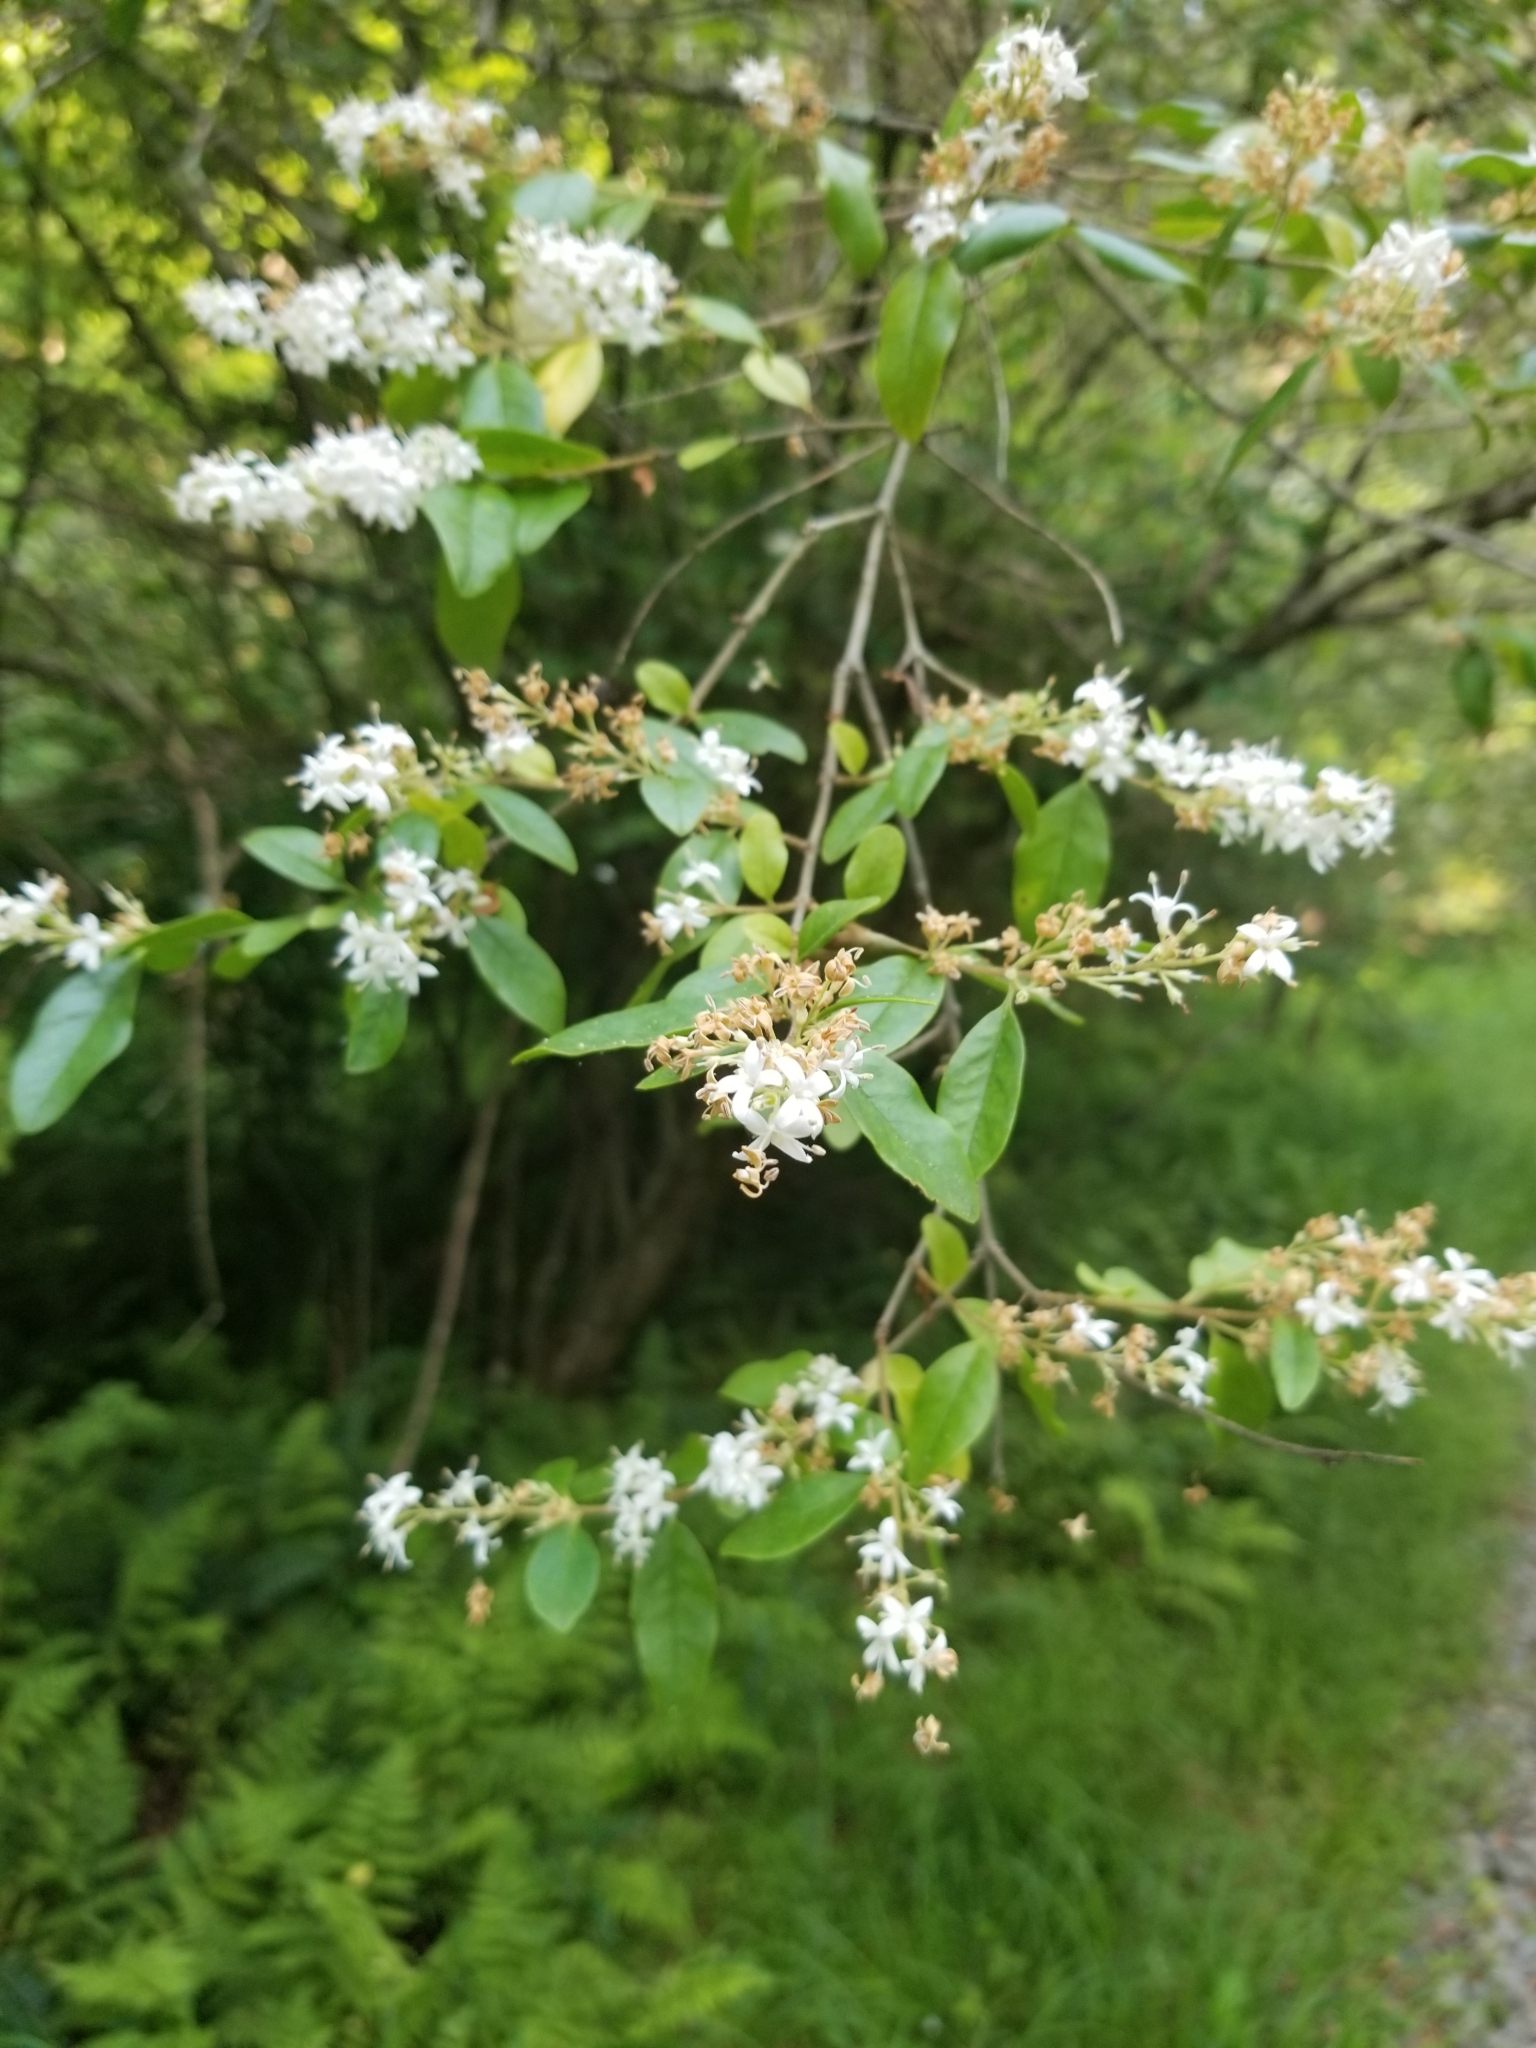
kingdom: Plantae
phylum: Tracheophyta
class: Magnoliopsida
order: Lamiales
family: Oleaceae
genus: Ligustrum
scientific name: Ligustrum sinense
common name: Chinese privet
